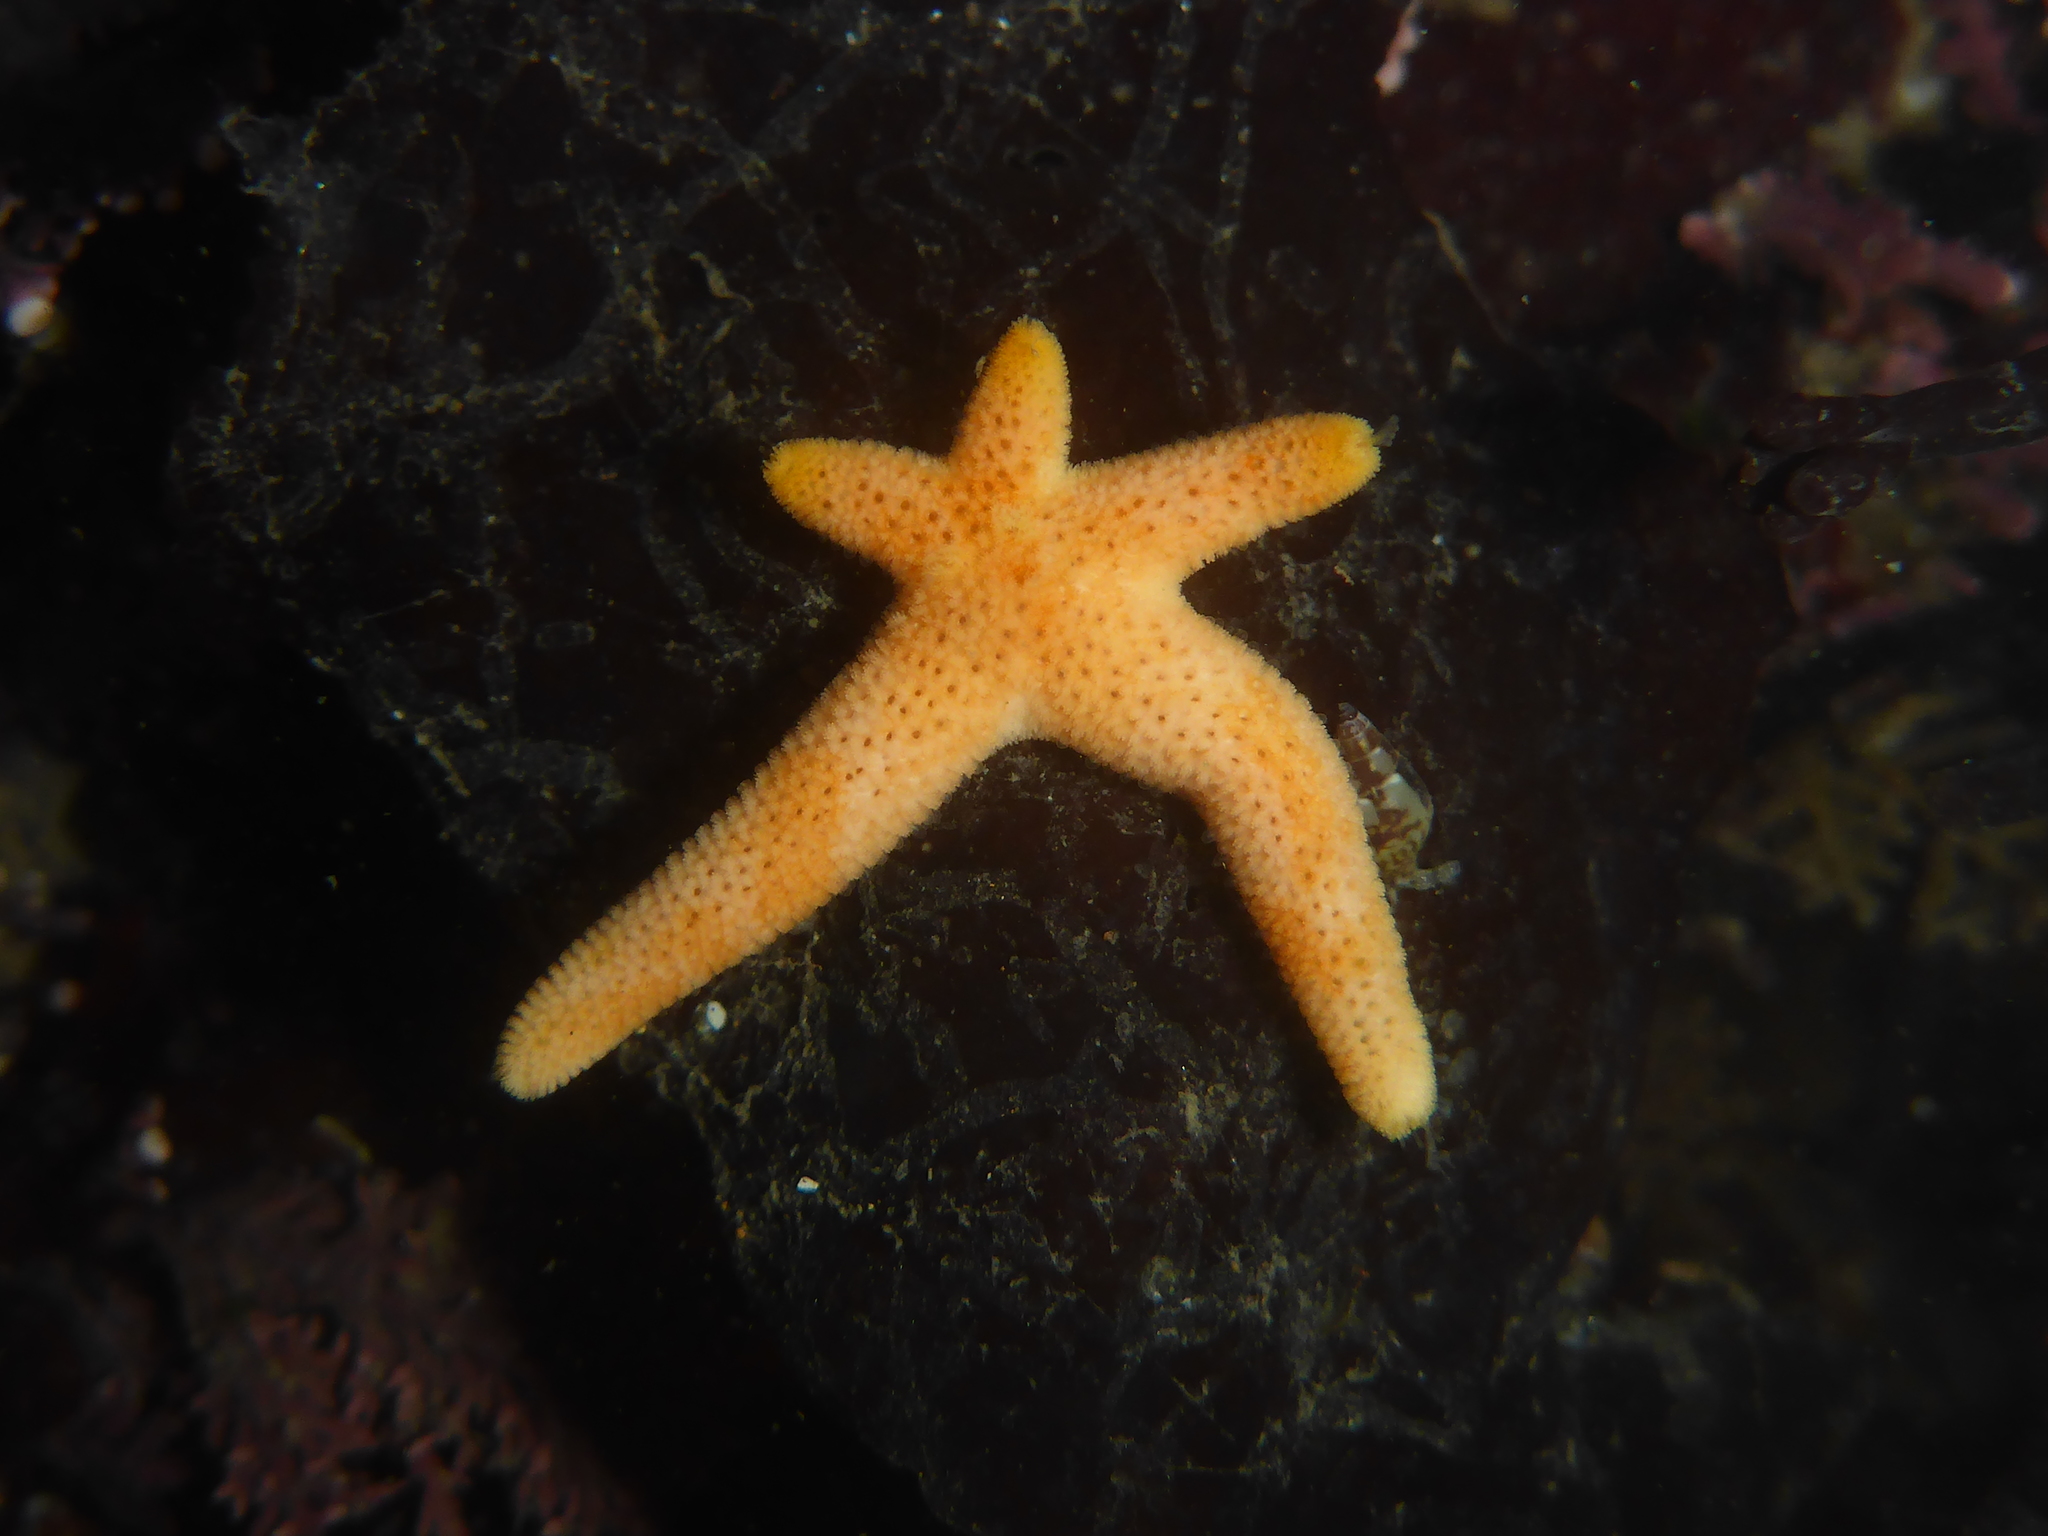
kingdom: Animalia
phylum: Echinodermata
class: Asteroidea
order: Spinulosida
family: Echinasteridae
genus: Henricia
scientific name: Henricia pumila
